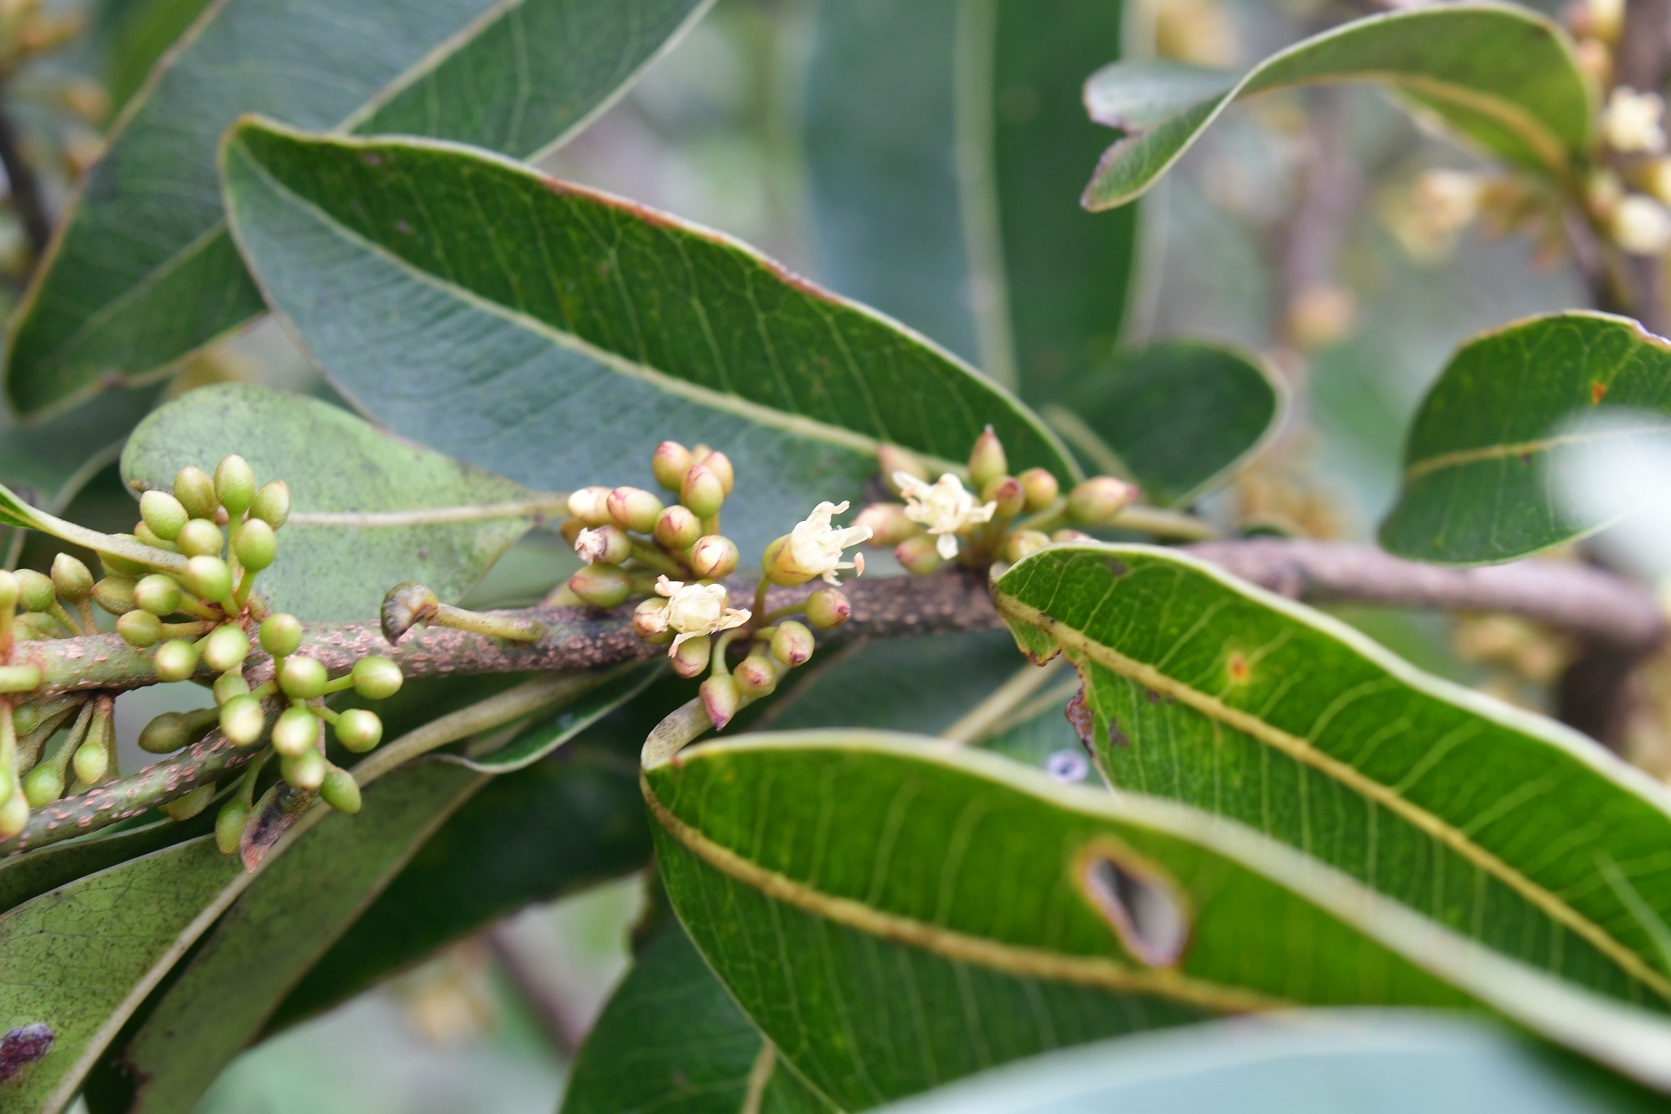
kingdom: Plantae
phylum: Tracheophyta
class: Magnoliopsida
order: Ericales
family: Sapotaceae
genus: Sideroxylon
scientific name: Sideroxylon salicifolium
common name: White bully
